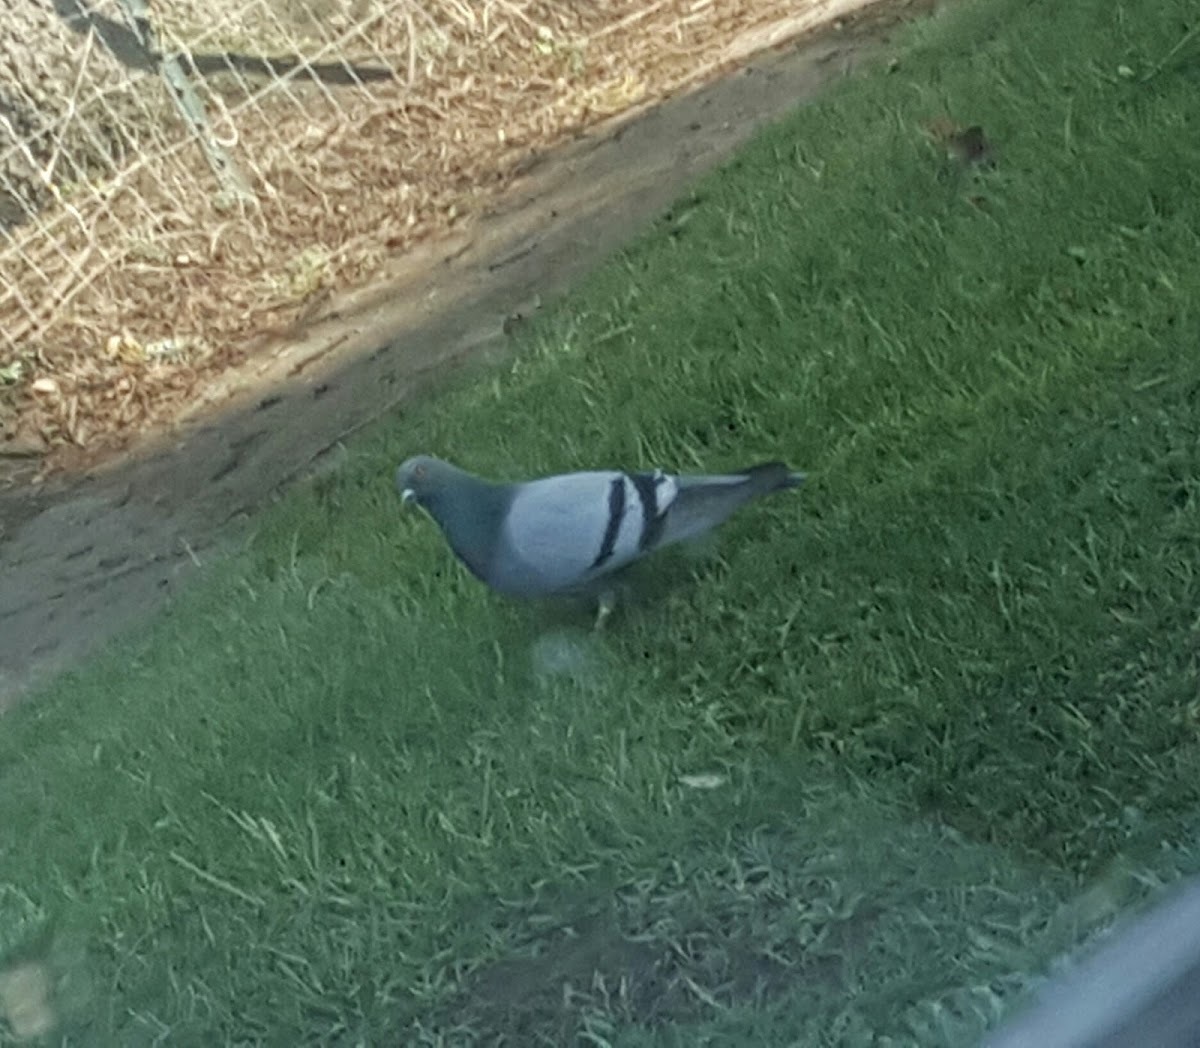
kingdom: Animalia
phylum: Chordata
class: Aves
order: Columbiformes
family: Columbidae
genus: Columba
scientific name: Columba livia
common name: Rock pigeon
